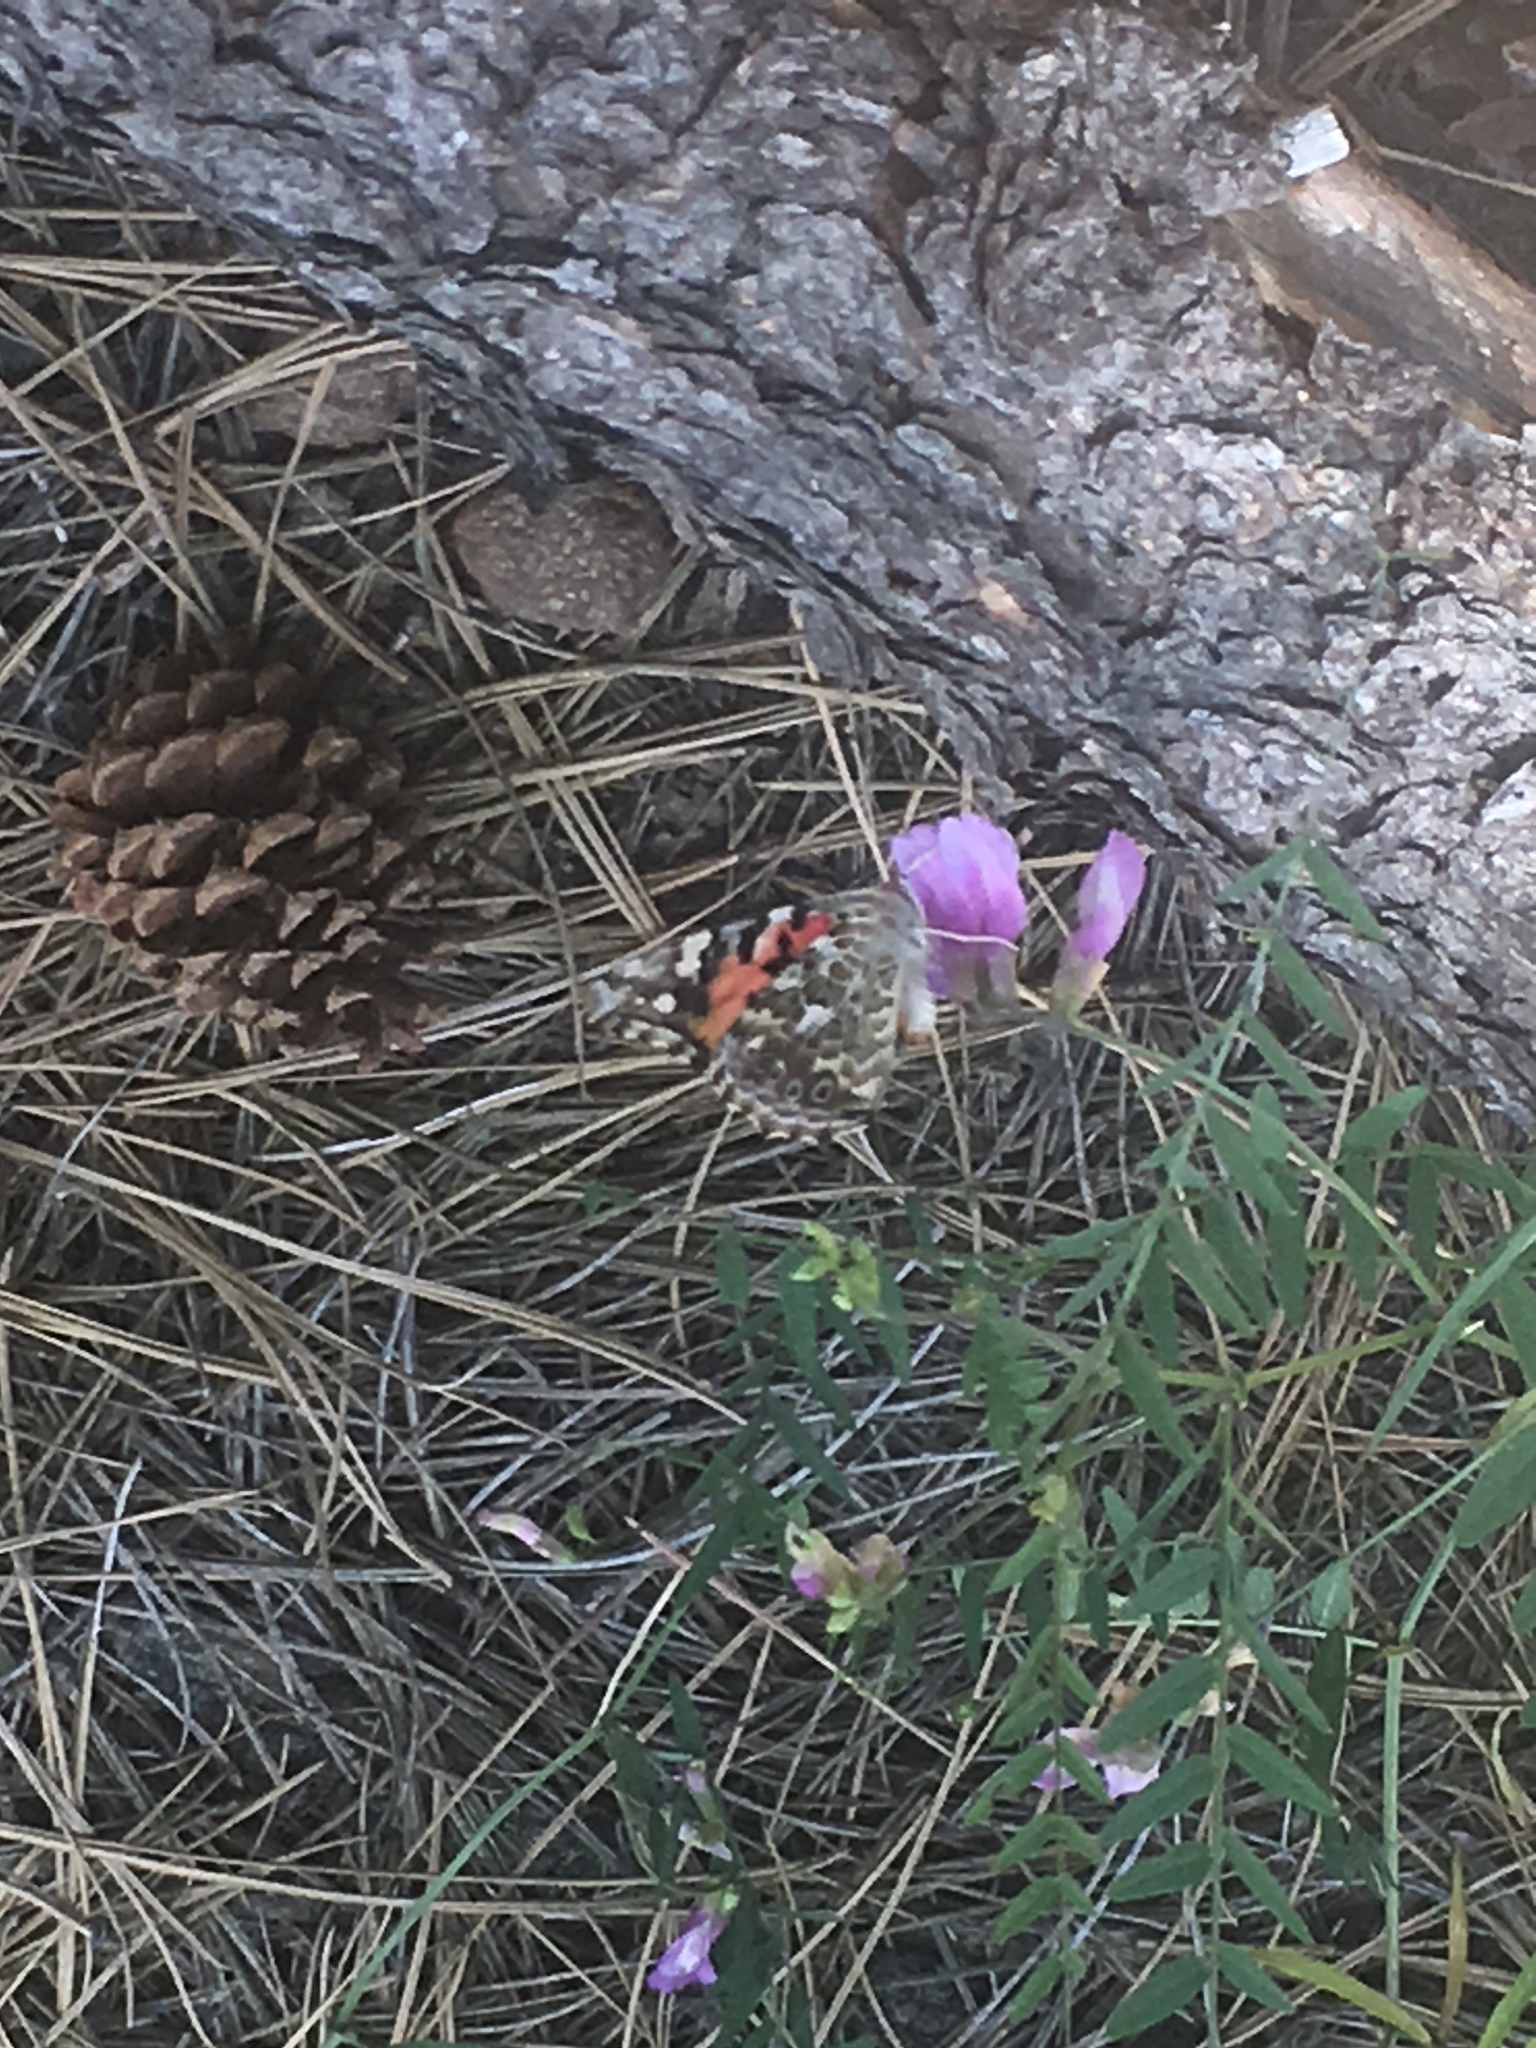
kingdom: Animalia
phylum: Arthropoda
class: Insecta
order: Lepidoptera
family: Nymphalidae
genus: Vanessa
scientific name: Vanessa cardui
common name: Painted lady
